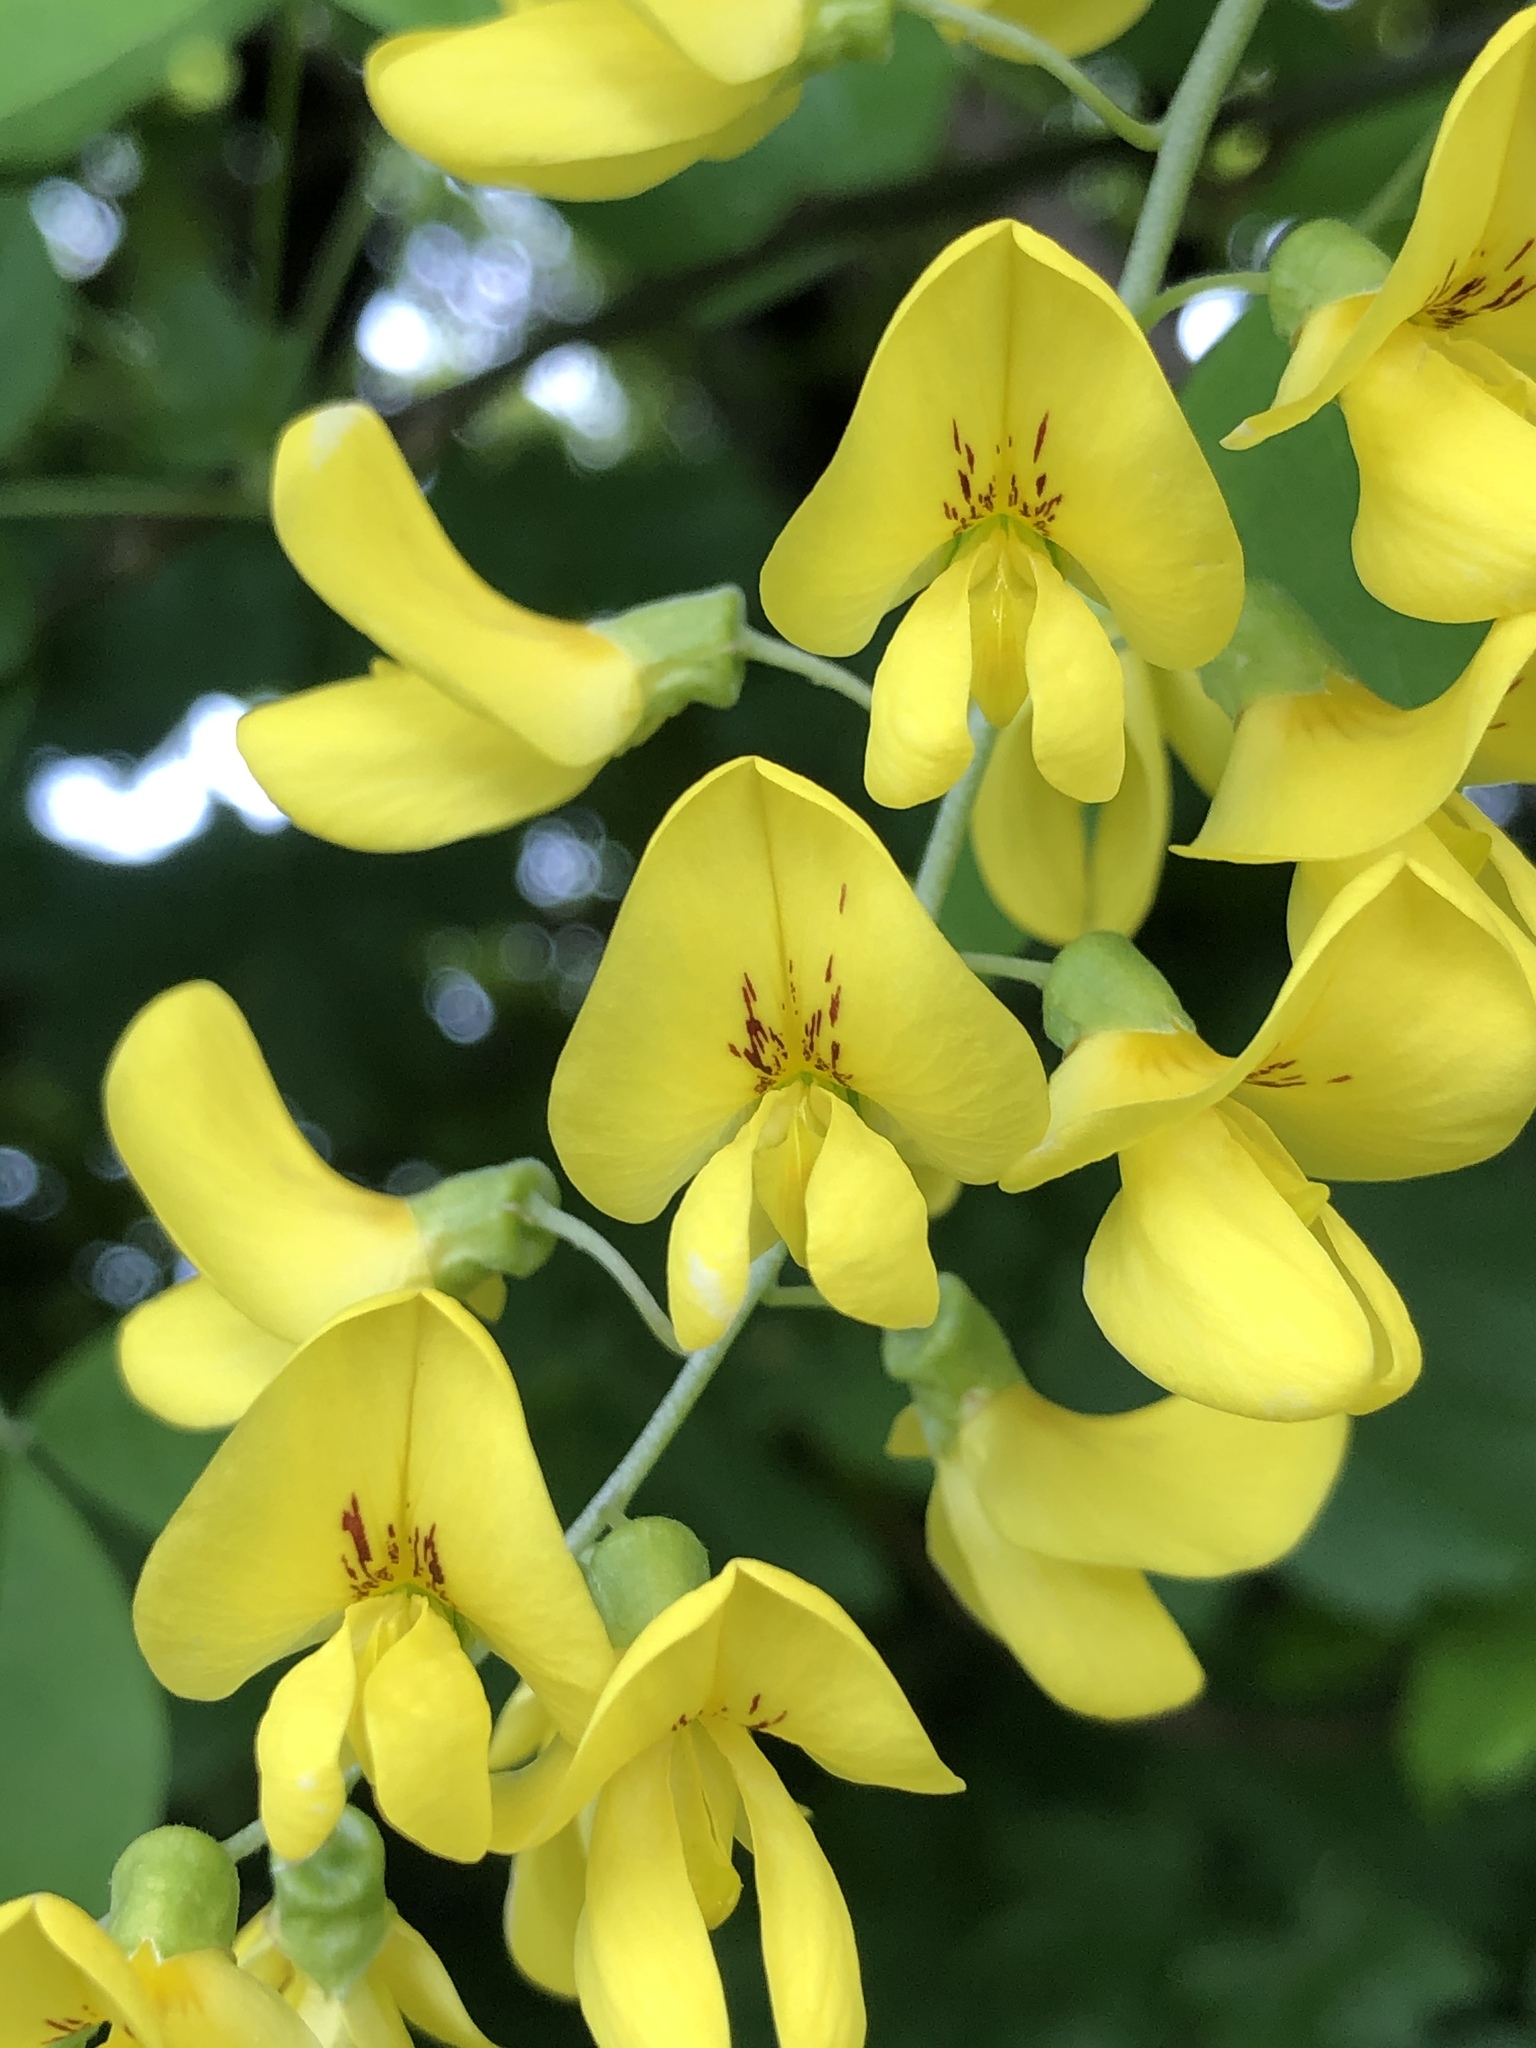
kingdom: Plantae
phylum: Tracheophyta
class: Magnoliopsida
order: Fabales
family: Fabaceae
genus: Laburnum
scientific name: Laburnum anagyroides
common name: Laburnum
